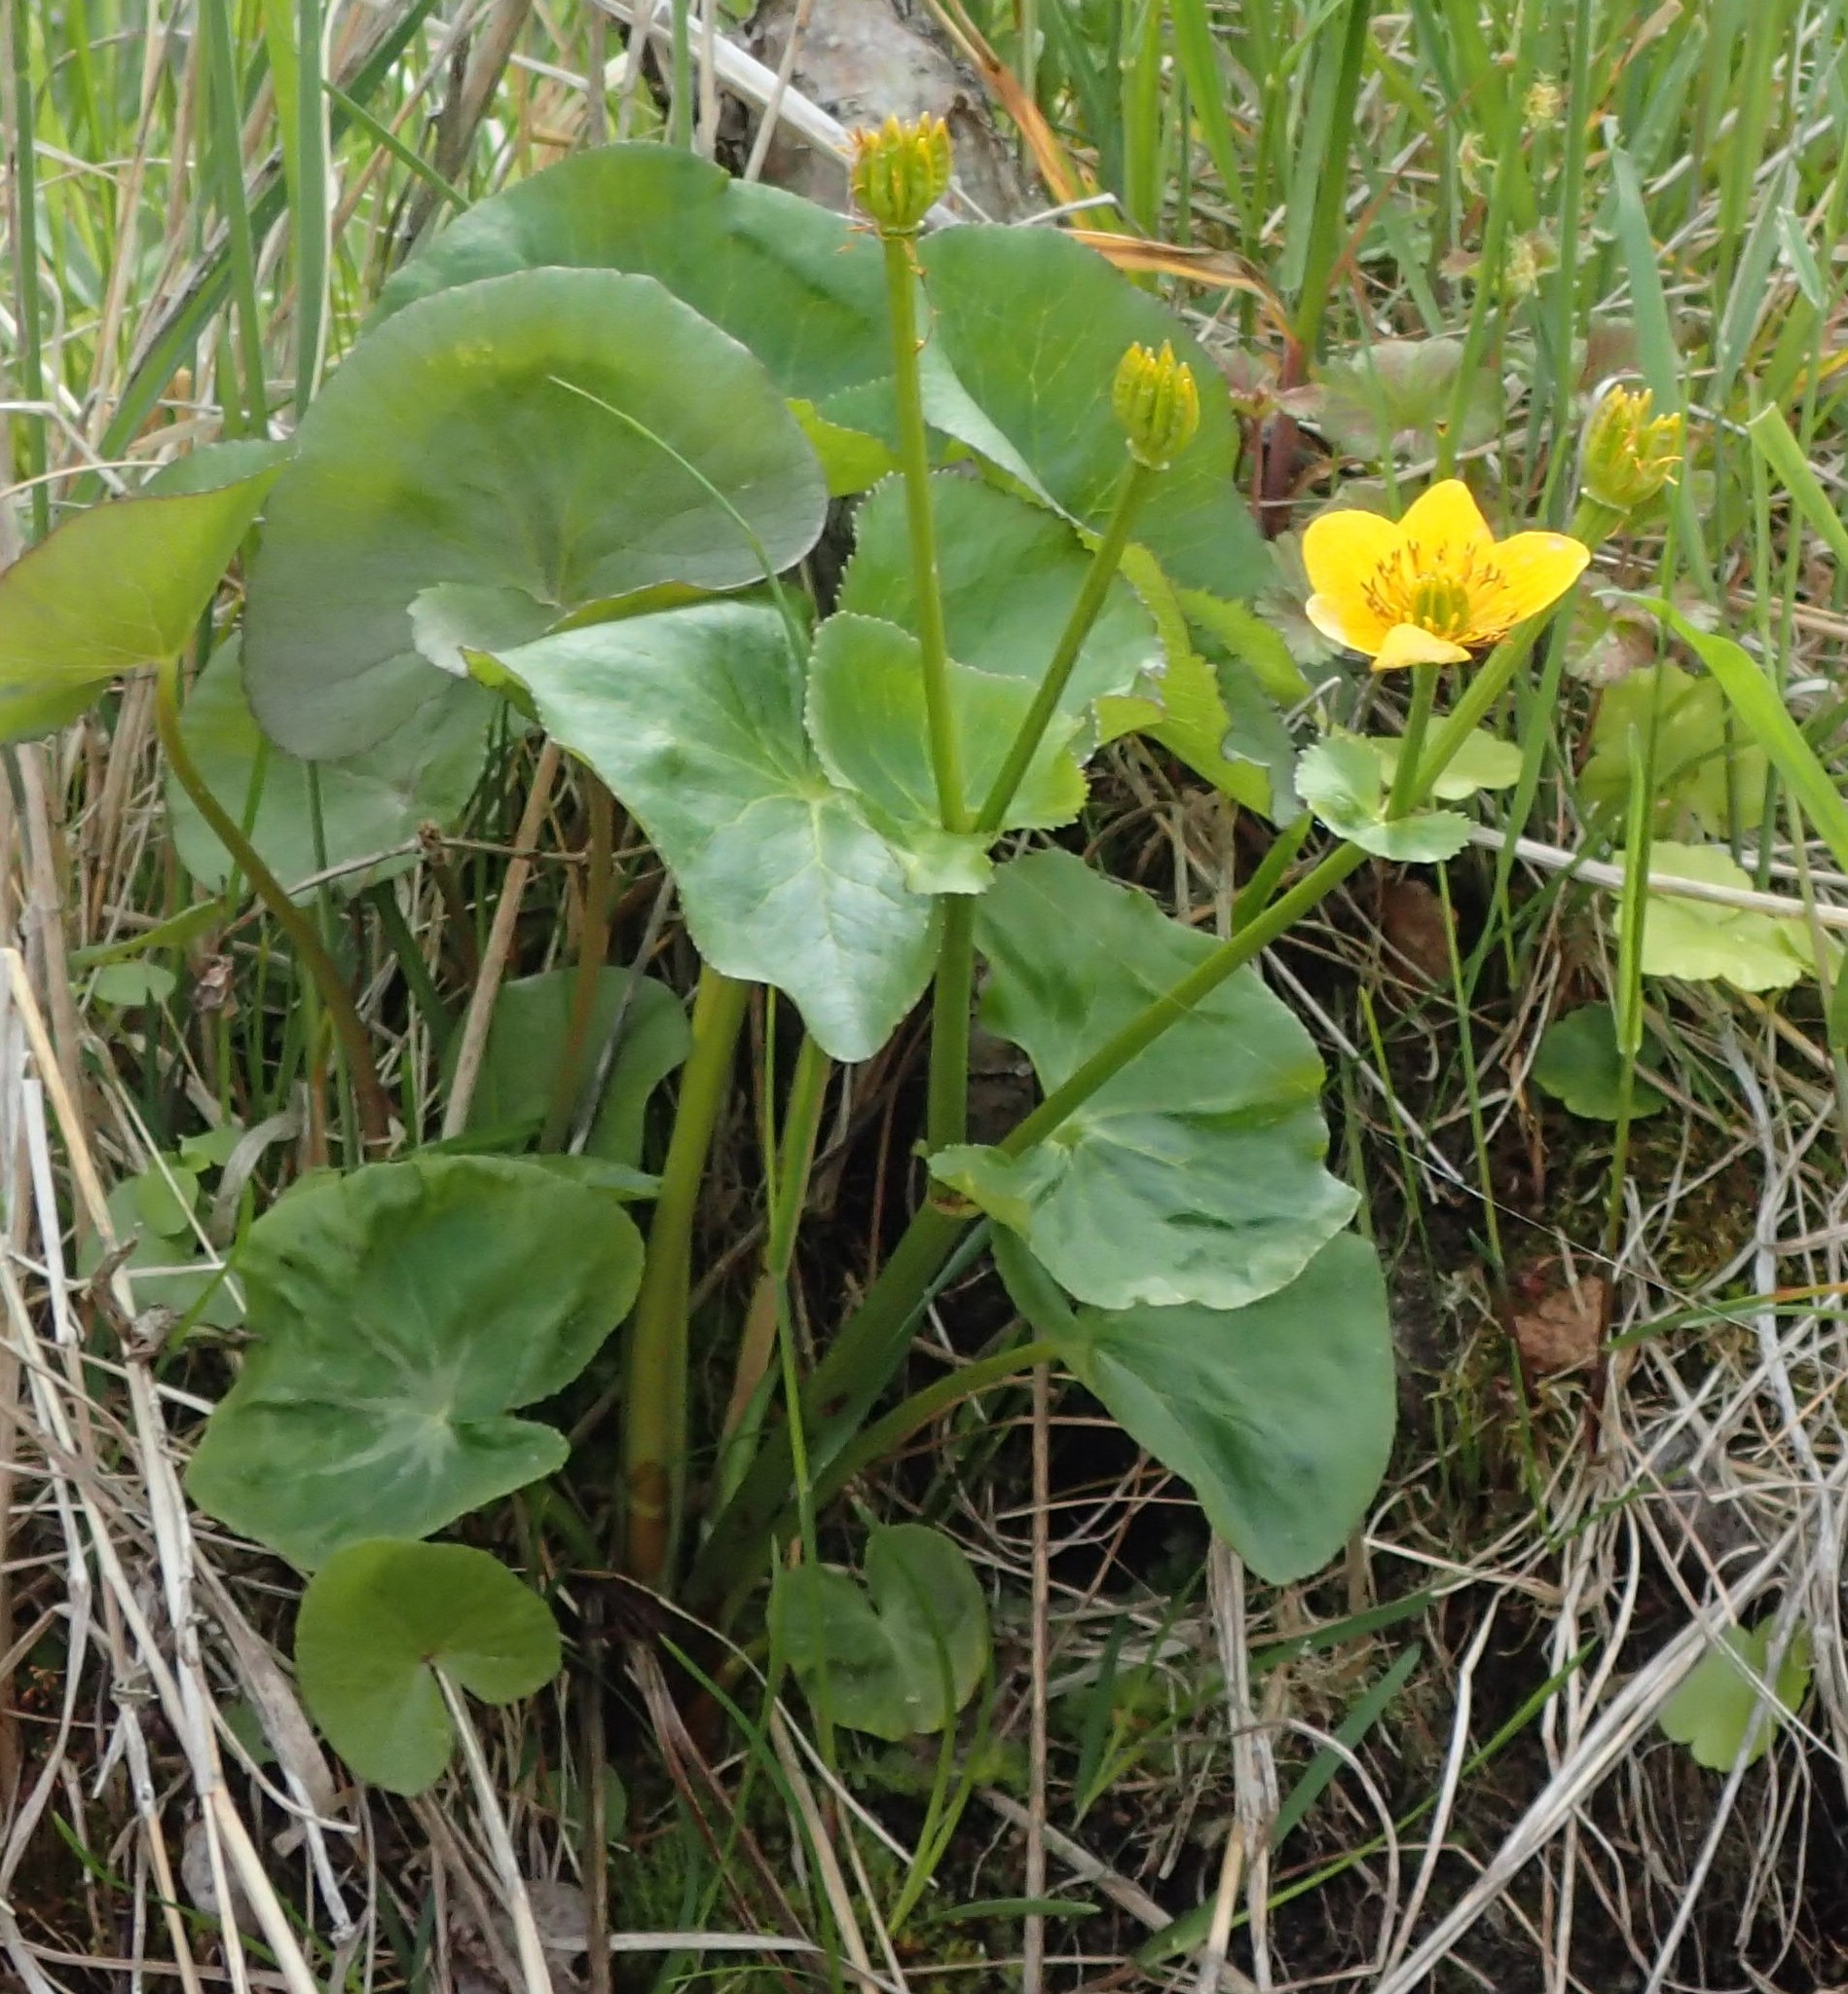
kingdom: Plantae
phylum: Tracheophyta
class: Magnoliopsida
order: Ranunculales
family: Ranunculaceae
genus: Caltha
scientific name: Caltha palustris
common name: Marsh marigold
